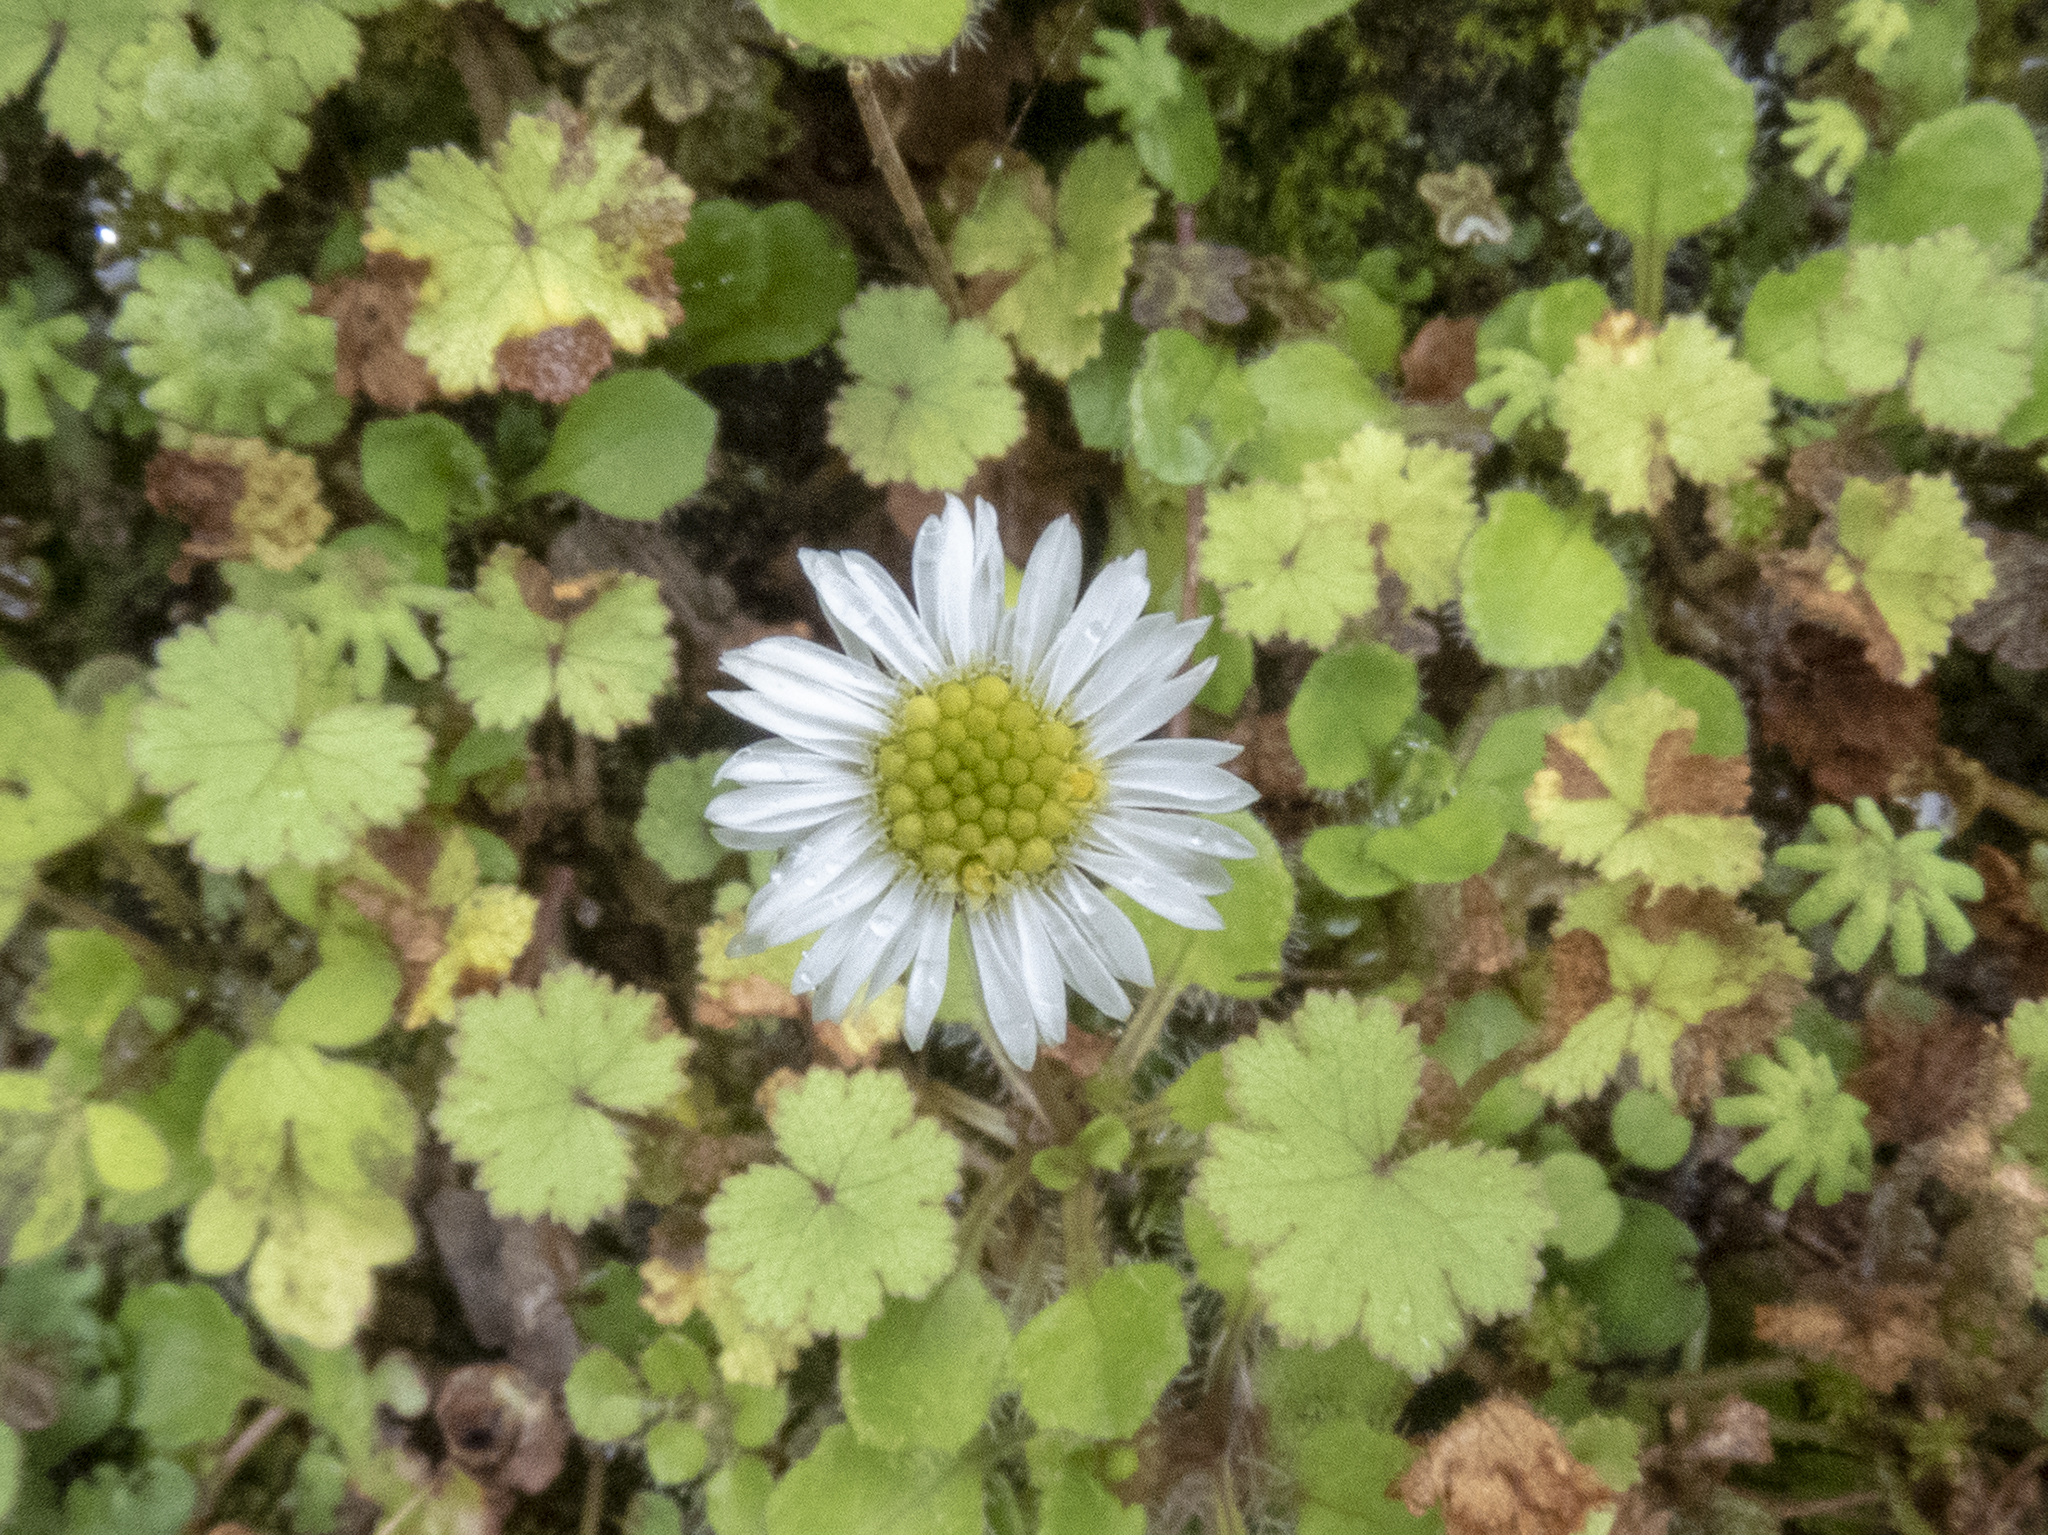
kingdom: Plantae
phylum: Tracheophyta
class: Magnoliopsida
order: Asterales
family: Asteraceae
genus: Lagenophora
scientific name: Lagenophora pumila
